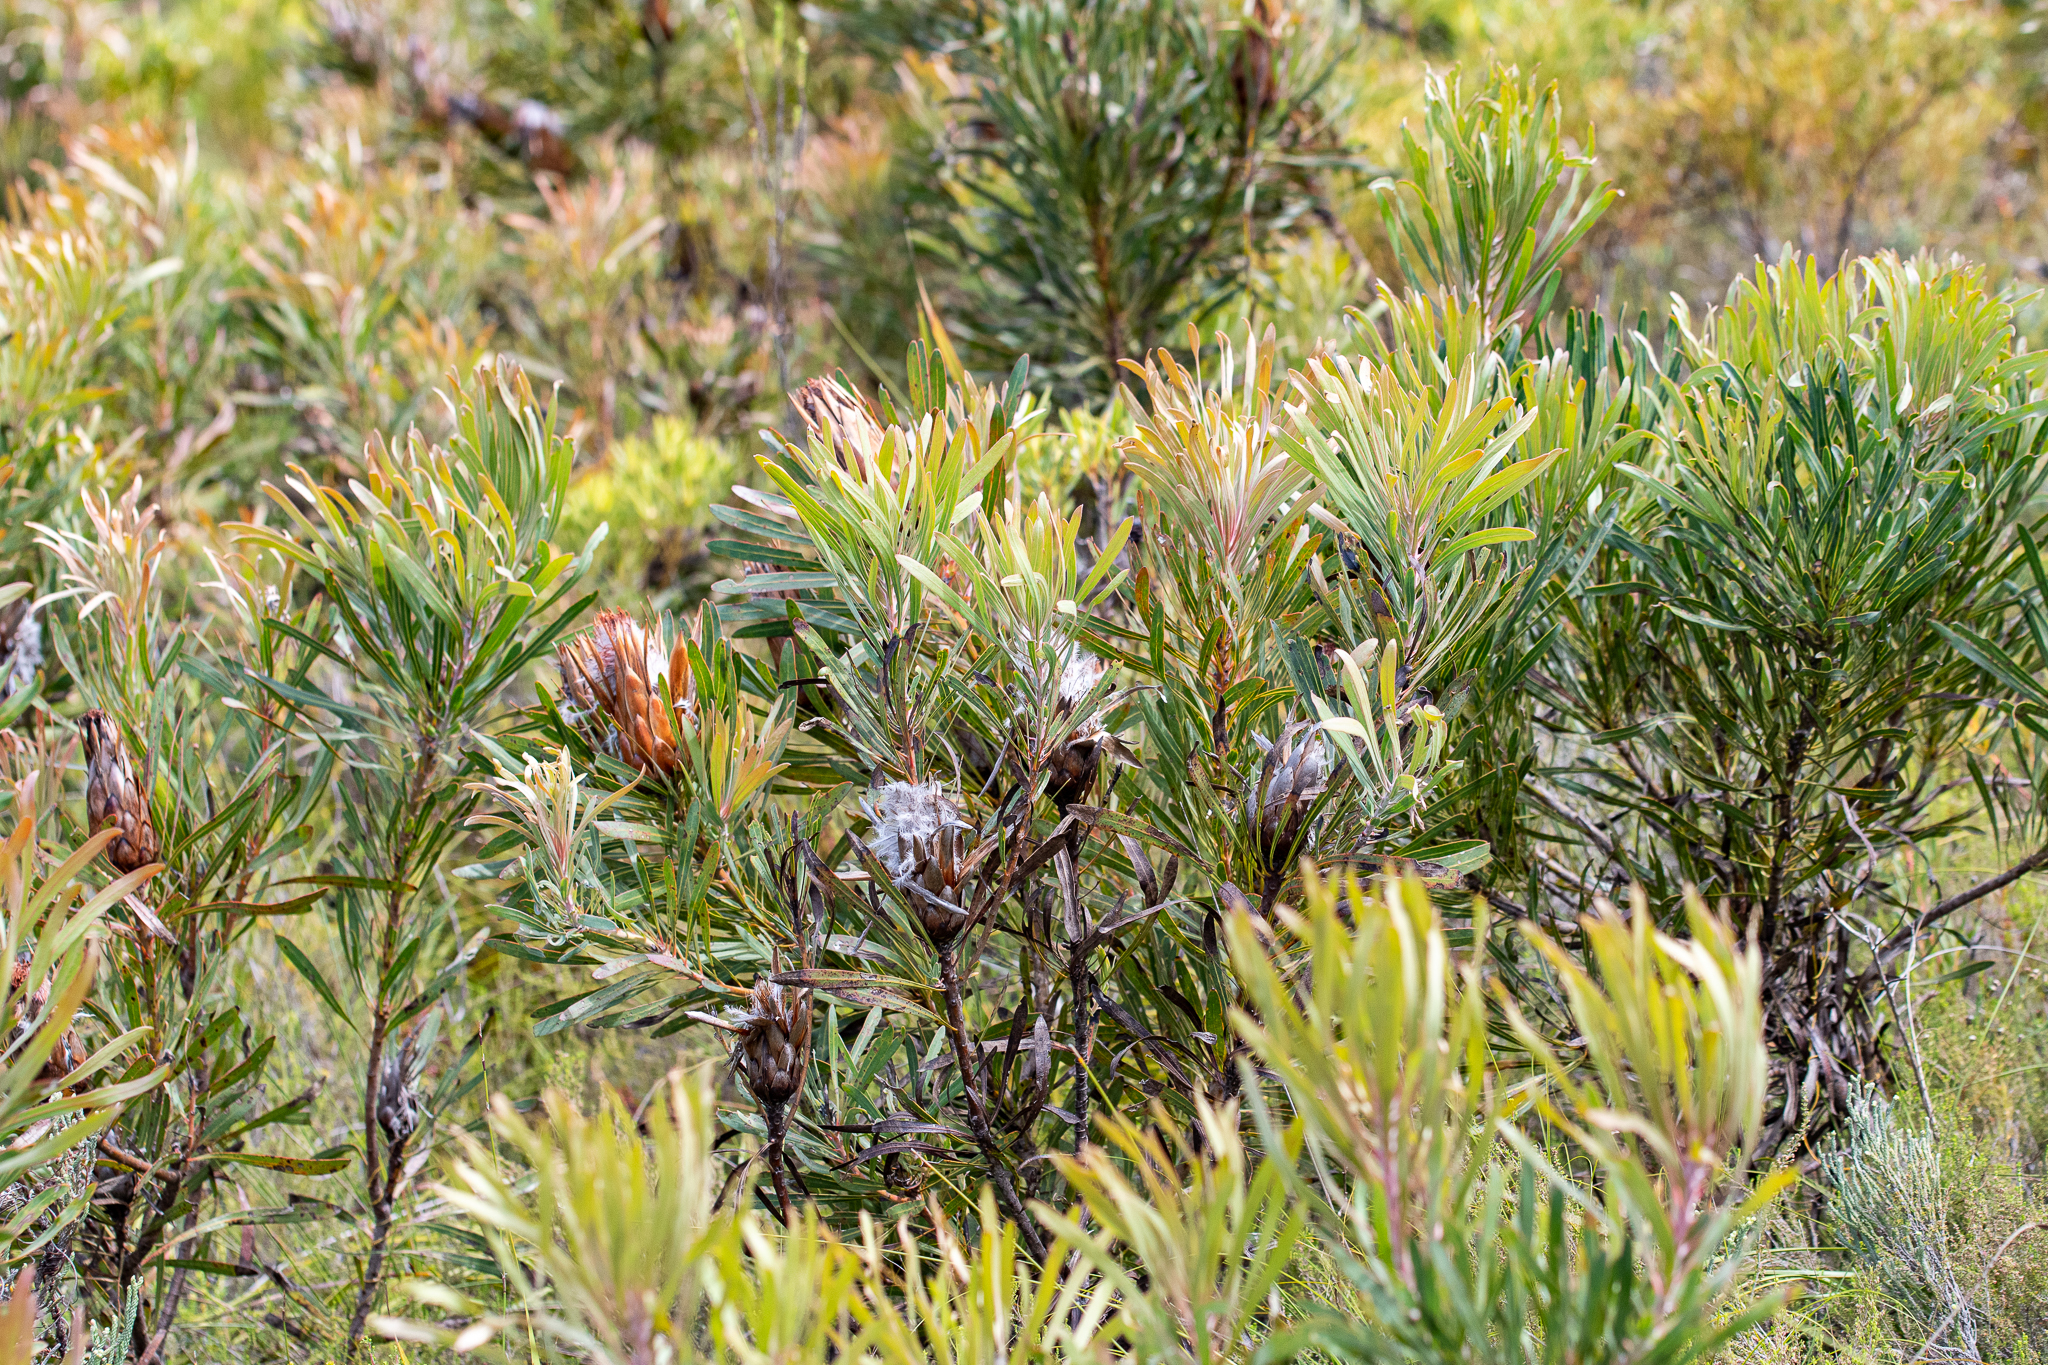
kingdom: Plantae
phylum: Tracheophyta
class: Magnoliopsida
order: Proteales
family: Proteaceae
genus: Protea
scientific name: Protea longifolia
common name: Long-leaf sugarbush
